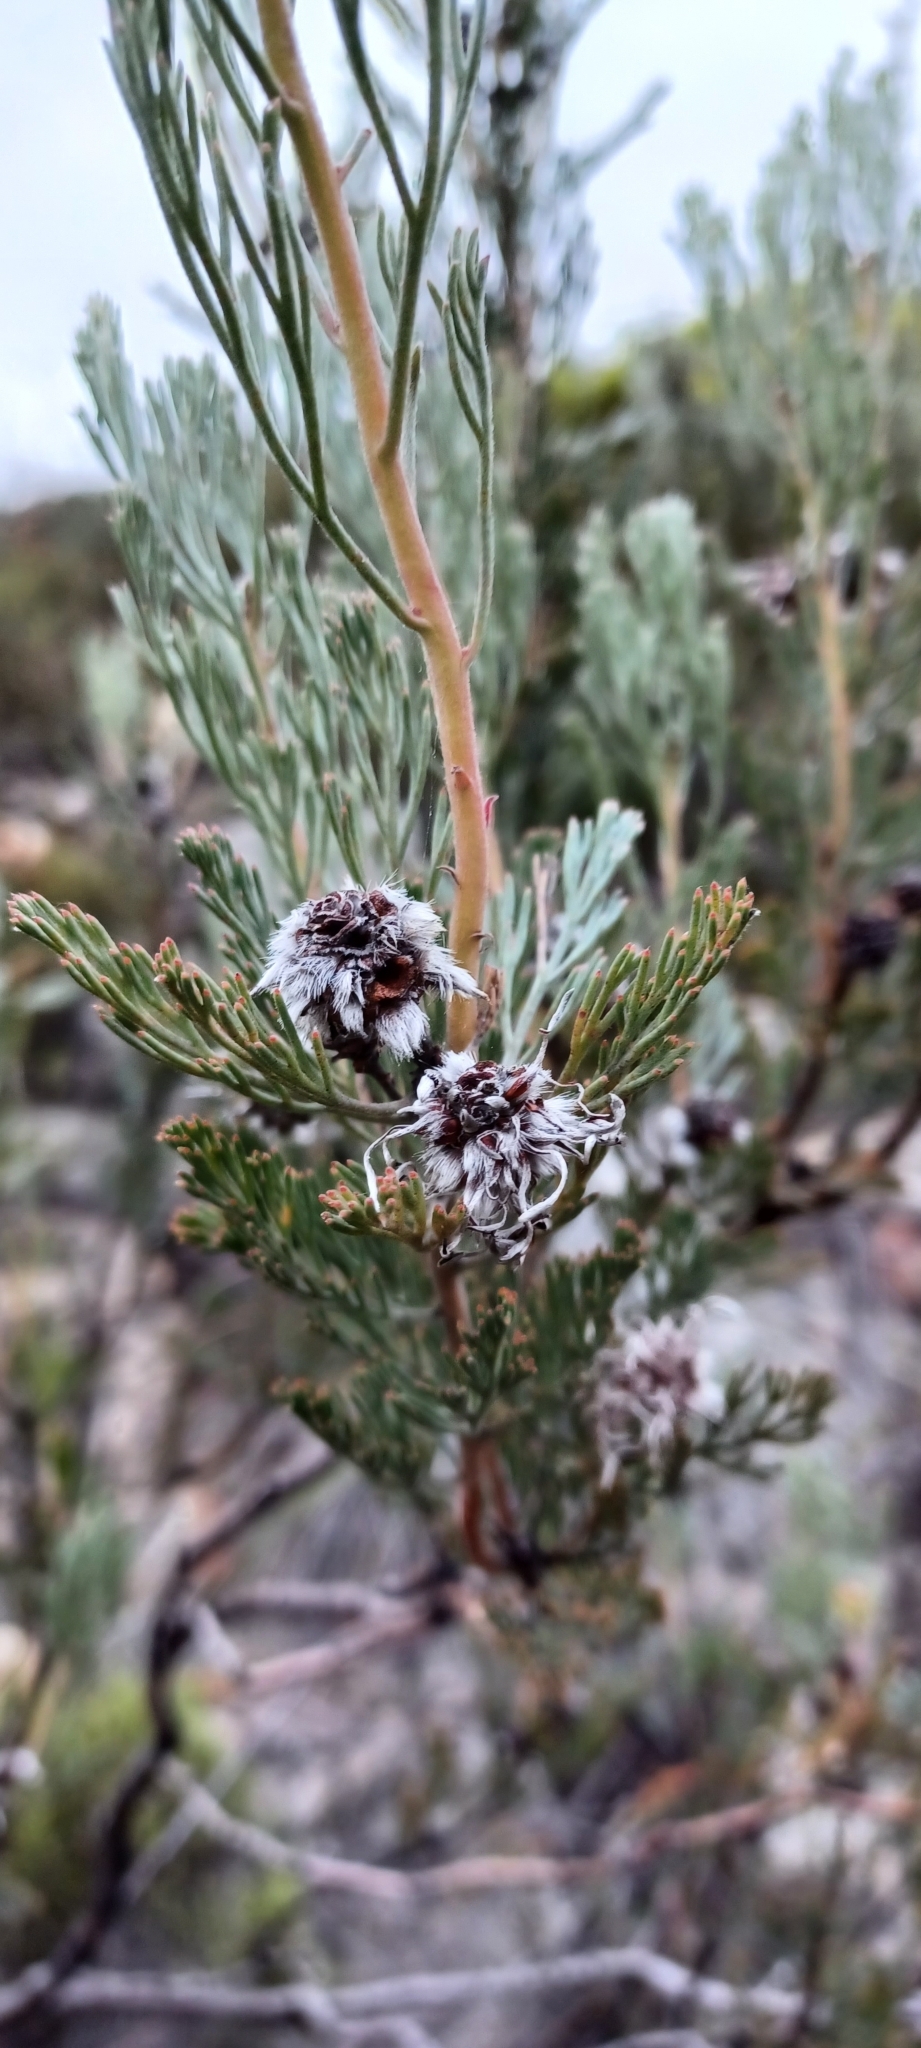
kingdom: Plantae
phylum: Tracheophyta
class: Magnoliopsida
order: Proteales
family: Proteaceae
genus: Serruria
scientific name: Serruria dodii
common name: Hex river spiderhead
